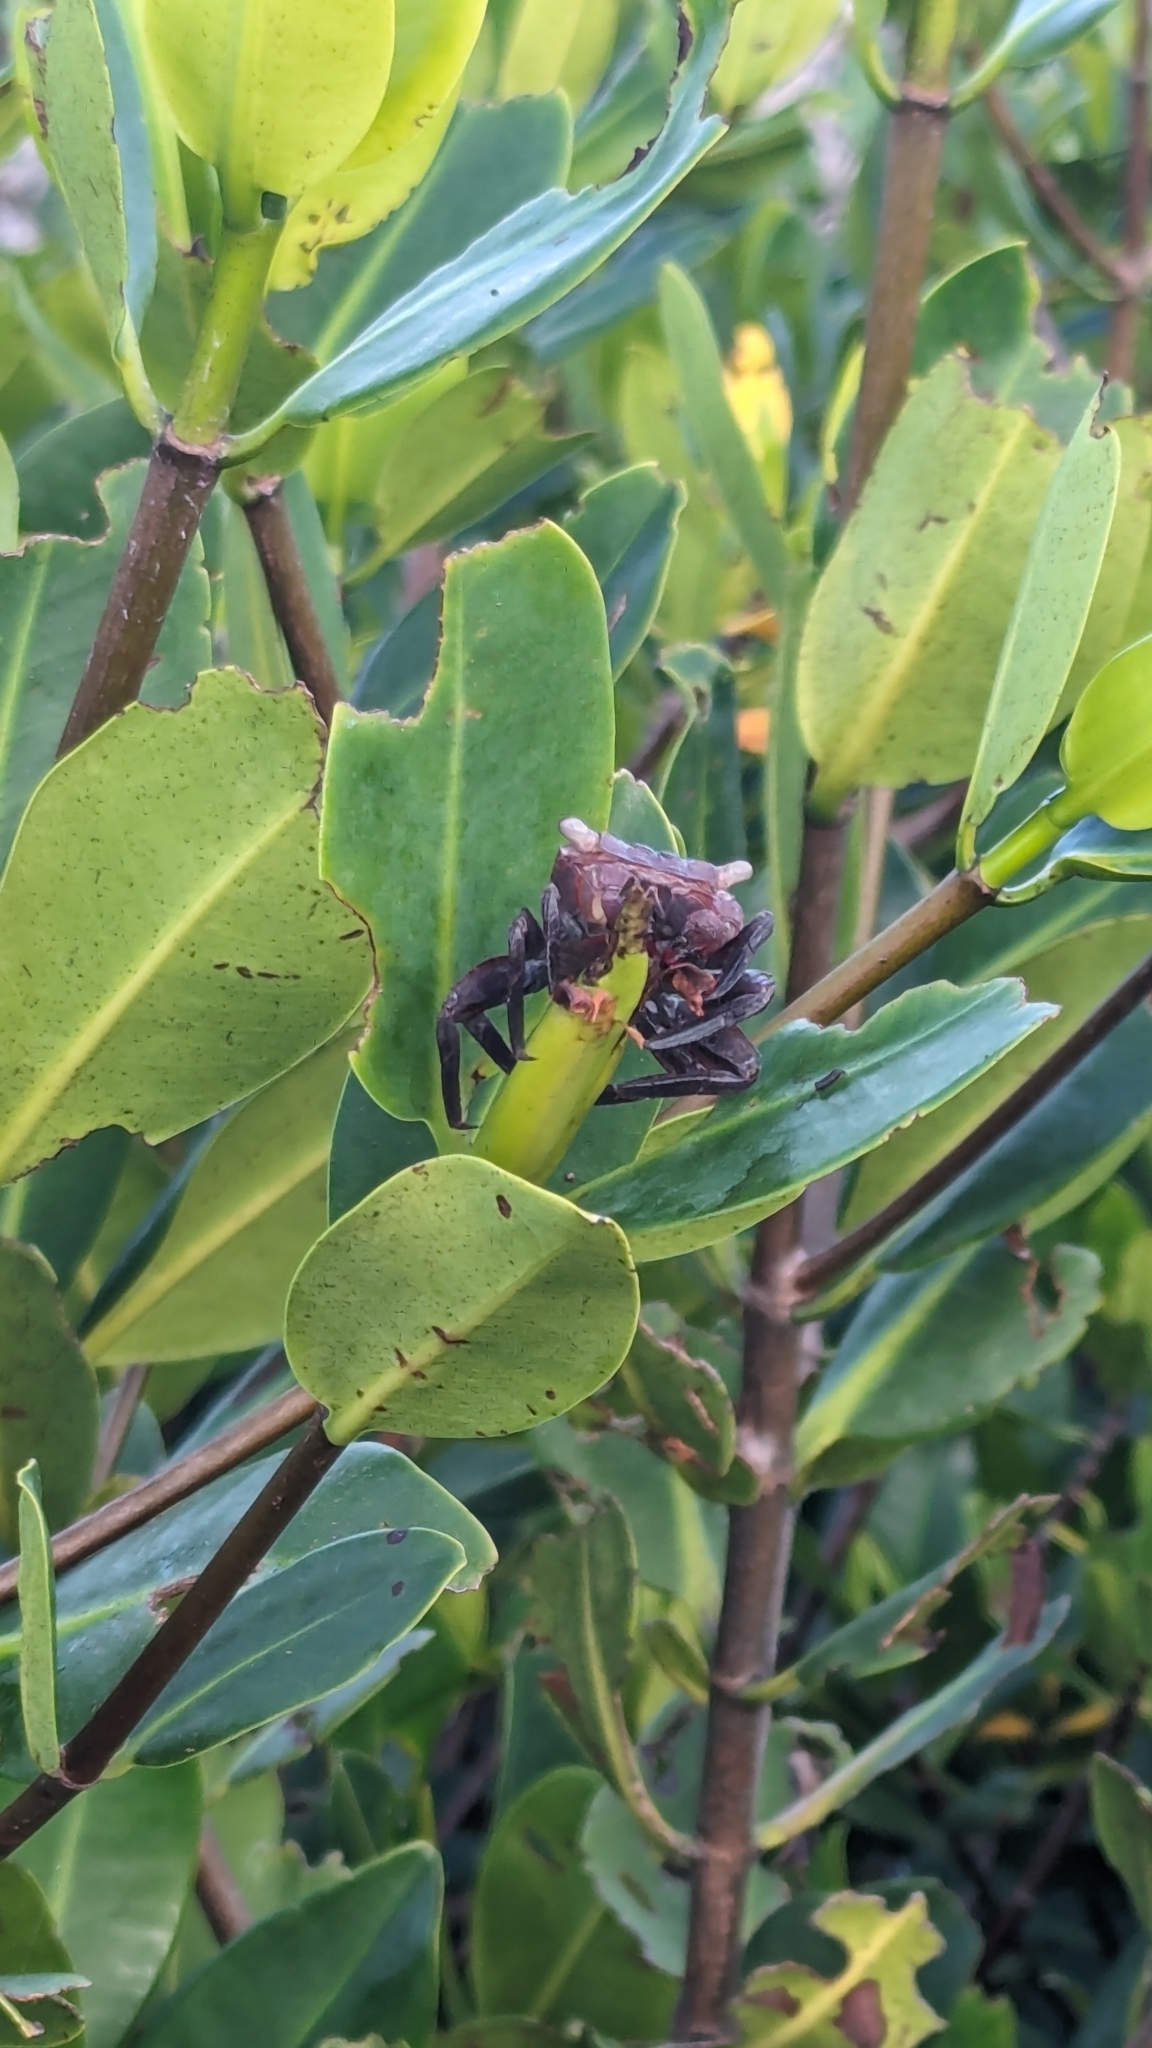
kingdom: Animalia
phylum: Arthropoda
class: Malacostraca
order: Decapoda
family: Sesarmidae
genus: Aratus
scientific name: Aratus pisonii
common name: Mangrove crab
